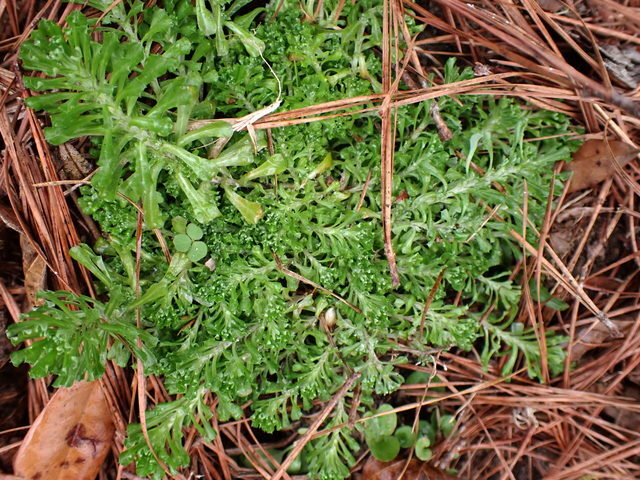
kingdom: Plantae
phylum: Tracheophyta
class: Magnoliopsida
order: Asterales
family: Asteraceae
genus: Facelis
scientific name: Facelis retusa
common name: Annual trampweed
